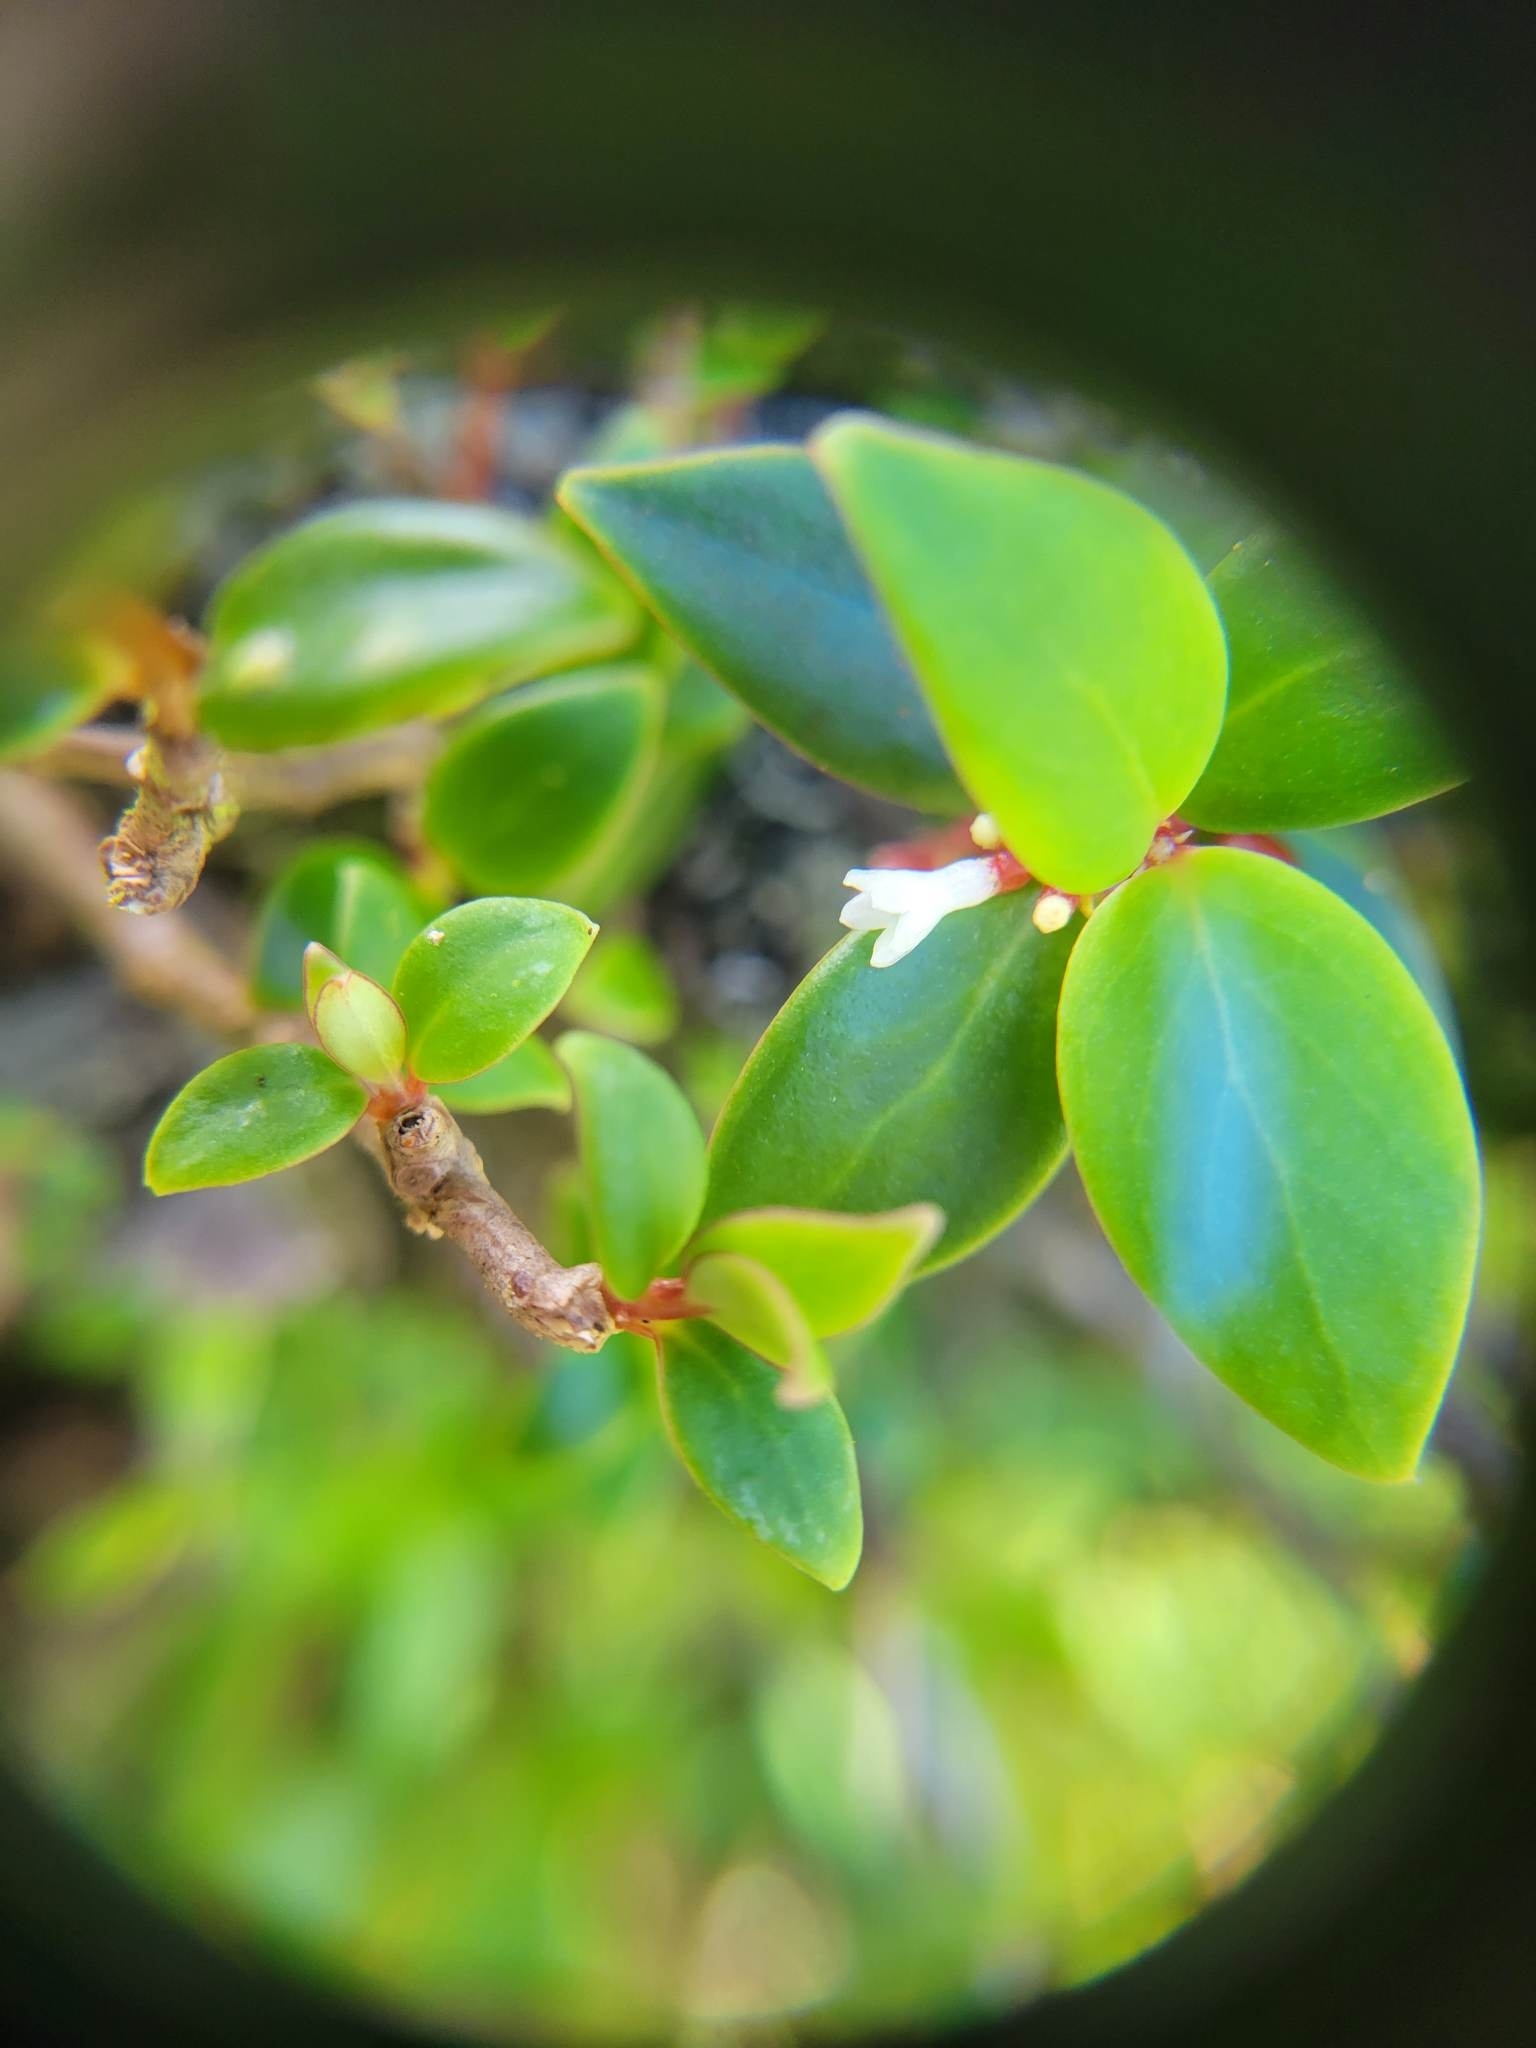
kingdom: Plantae
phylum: Tracheophyta
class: Magnoliopsida
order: Gentianales
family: Rubiaceae
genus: Notopleura
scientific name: Notopleura parasitica
